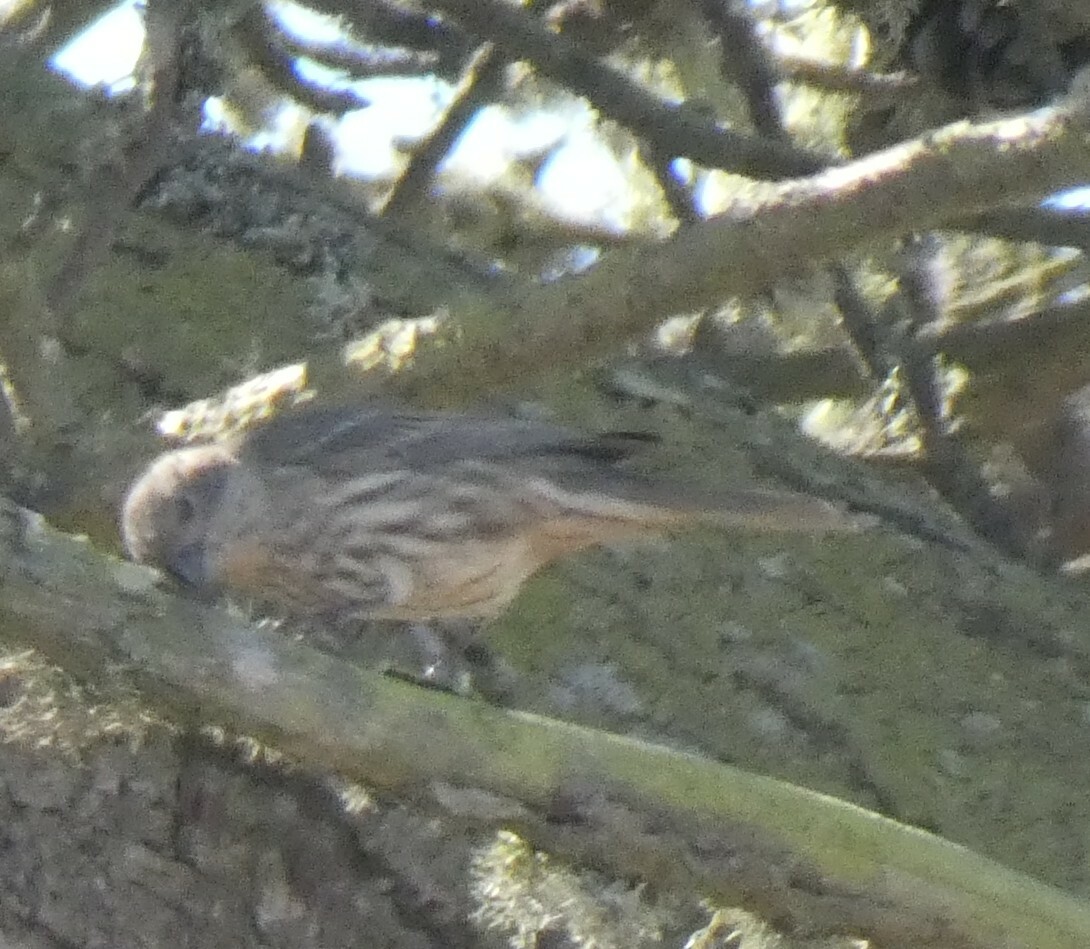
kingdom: Animalia
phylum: Chordata
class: Aves
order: Passeriformes
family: Fringillidae
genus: Haemorhous
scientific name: Haemorhous mexicanus
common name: House finch
